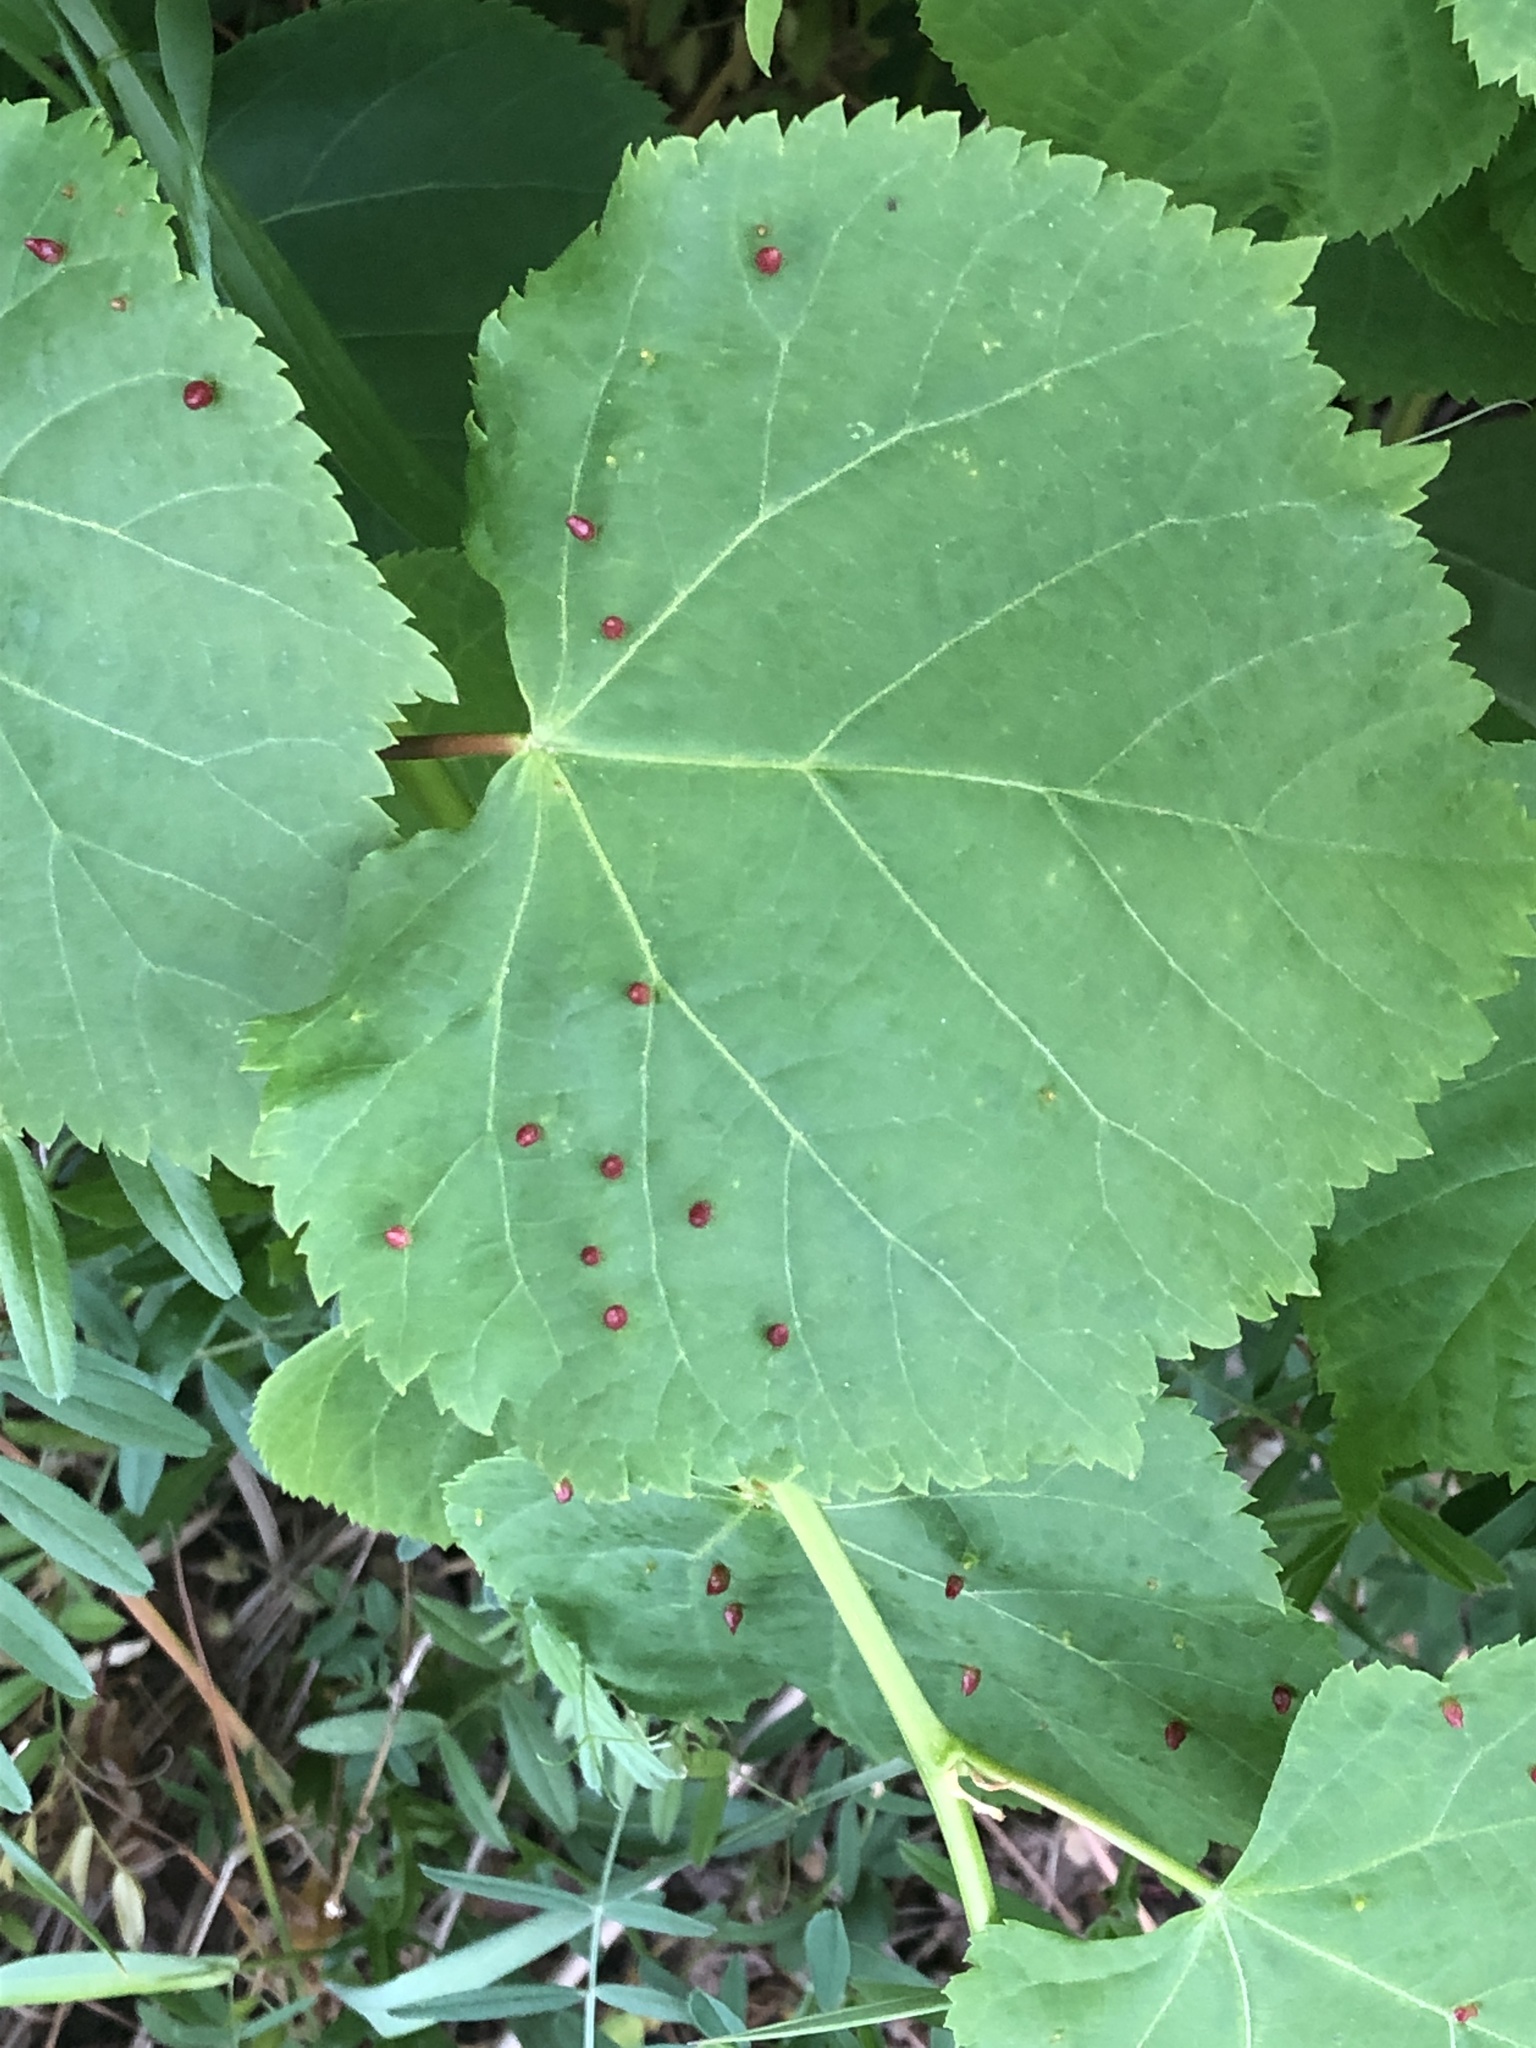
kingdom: Animalia
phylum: Arthropoda
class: Arachnida
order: Trombidiformes
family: Eriophyidae
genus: Eriophyes
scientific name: Eriophyes tiliae
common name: Red nail gall mite
